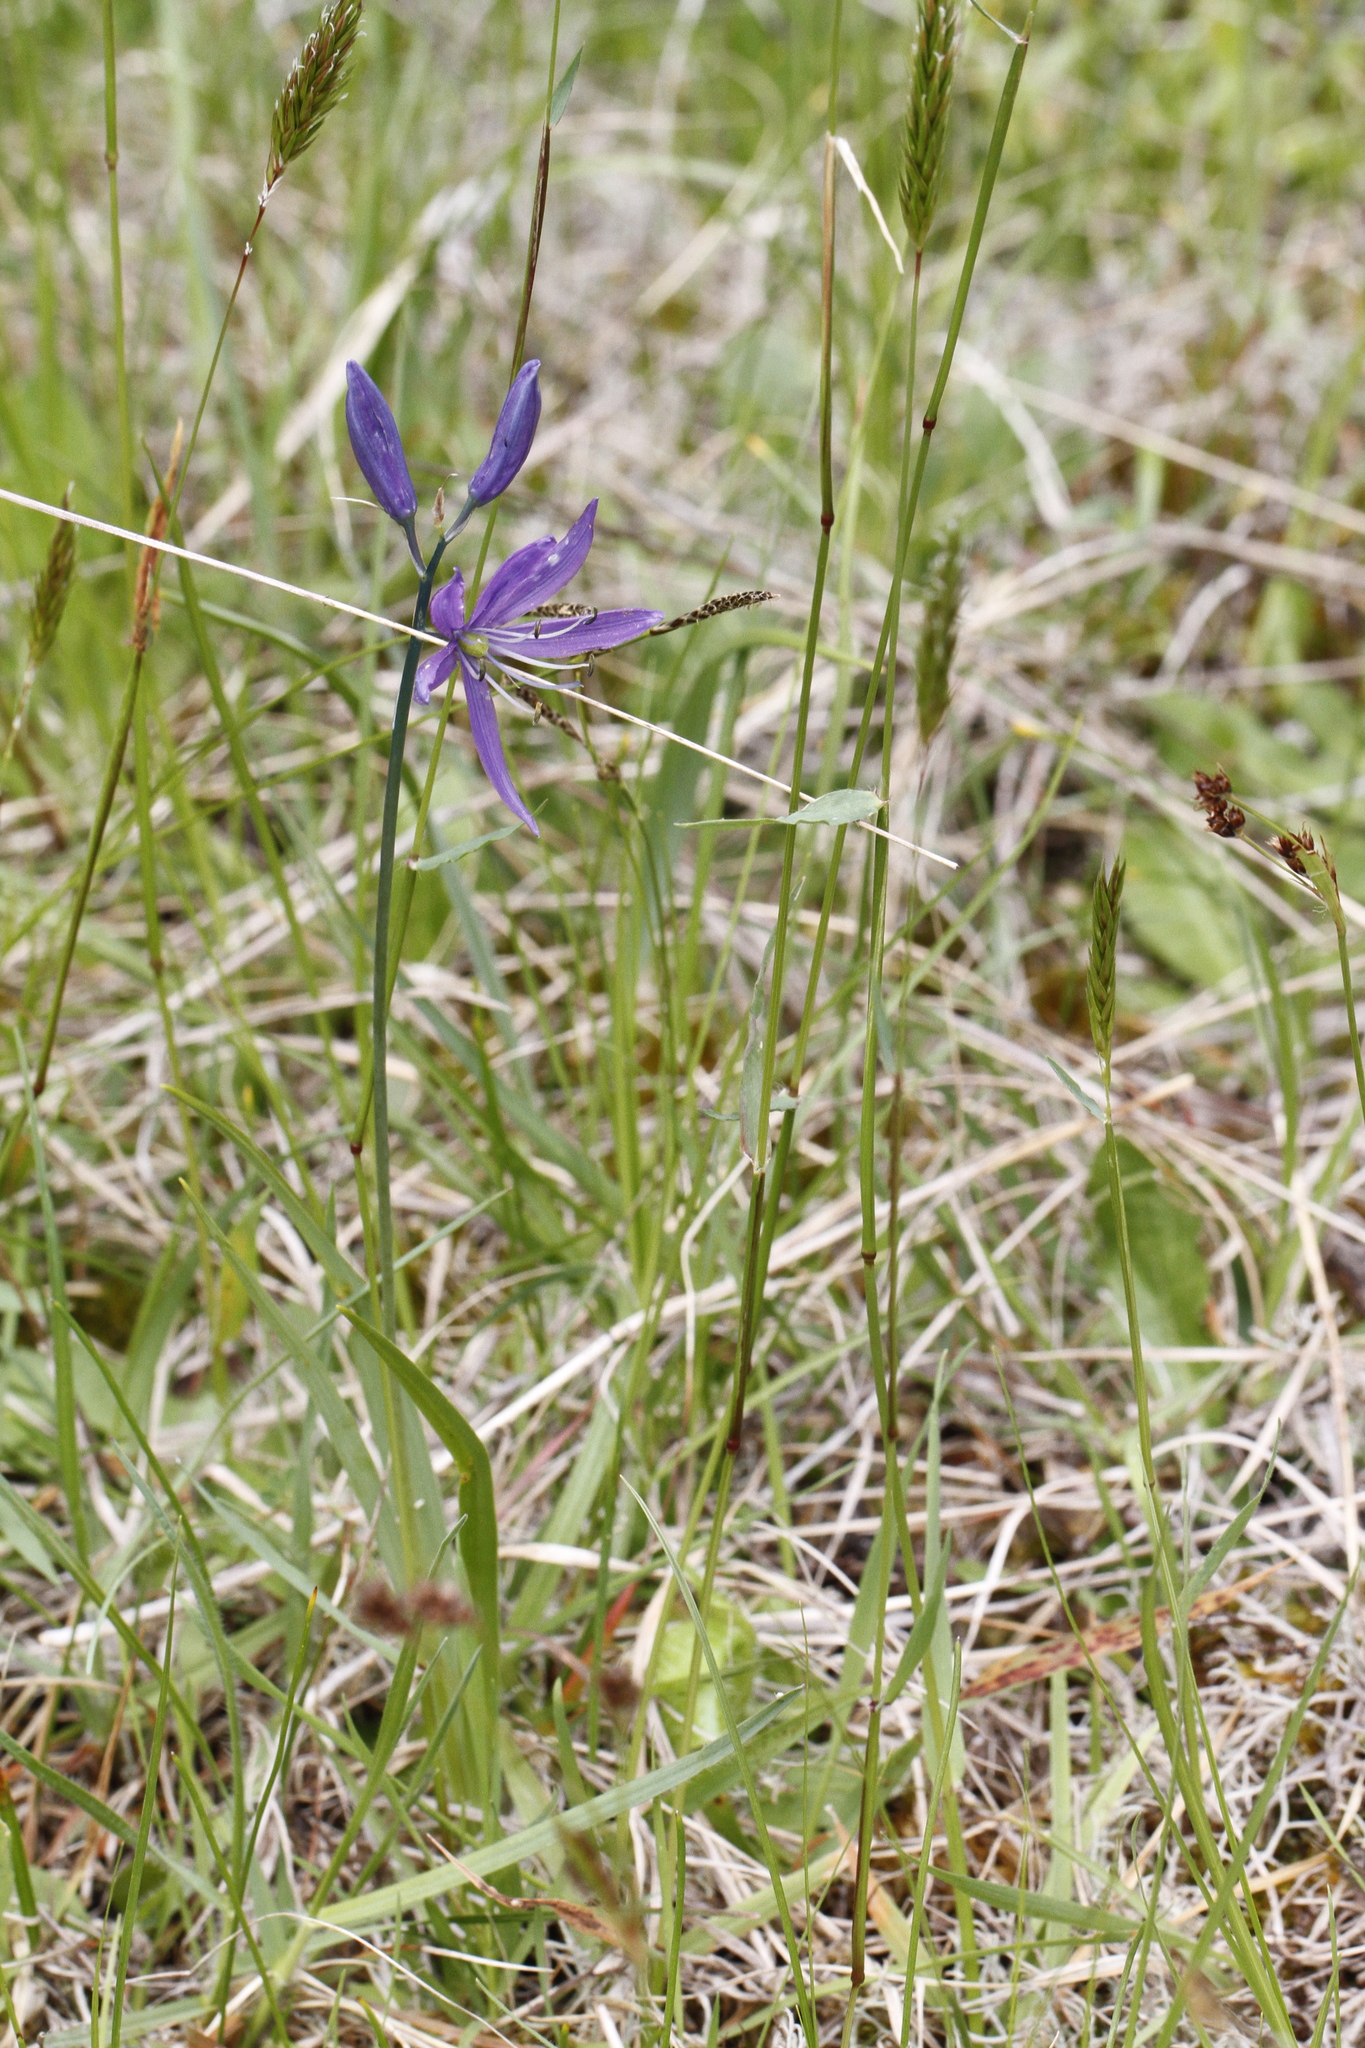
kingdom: Plantae
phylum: Tracheophyta
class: Liliopsida
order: Asparagales
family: Asparagaceae
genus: Camassia
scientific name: Camassia quamash
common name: Common camas
